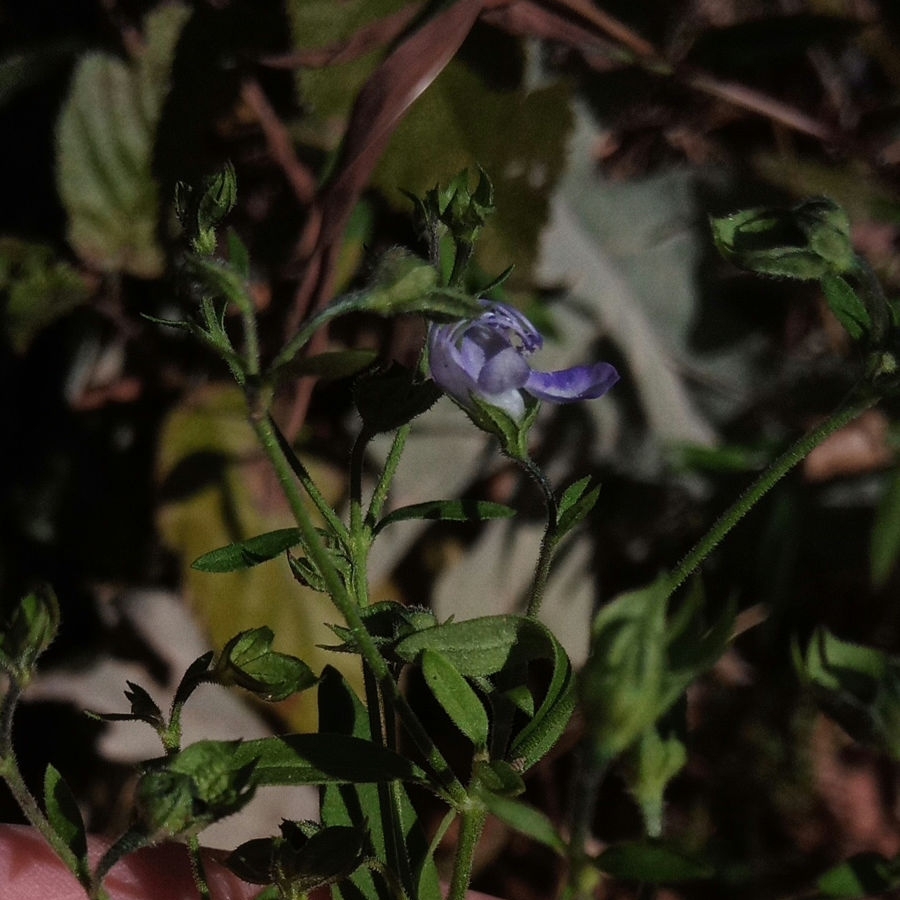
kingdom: Plantae
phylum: Tracheophyta
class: Magnoliopsida
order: Lamiales
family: Lamiaceae
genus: Trichostema
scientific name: Trichostema dichotomum
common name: Bastard pennyroyal
